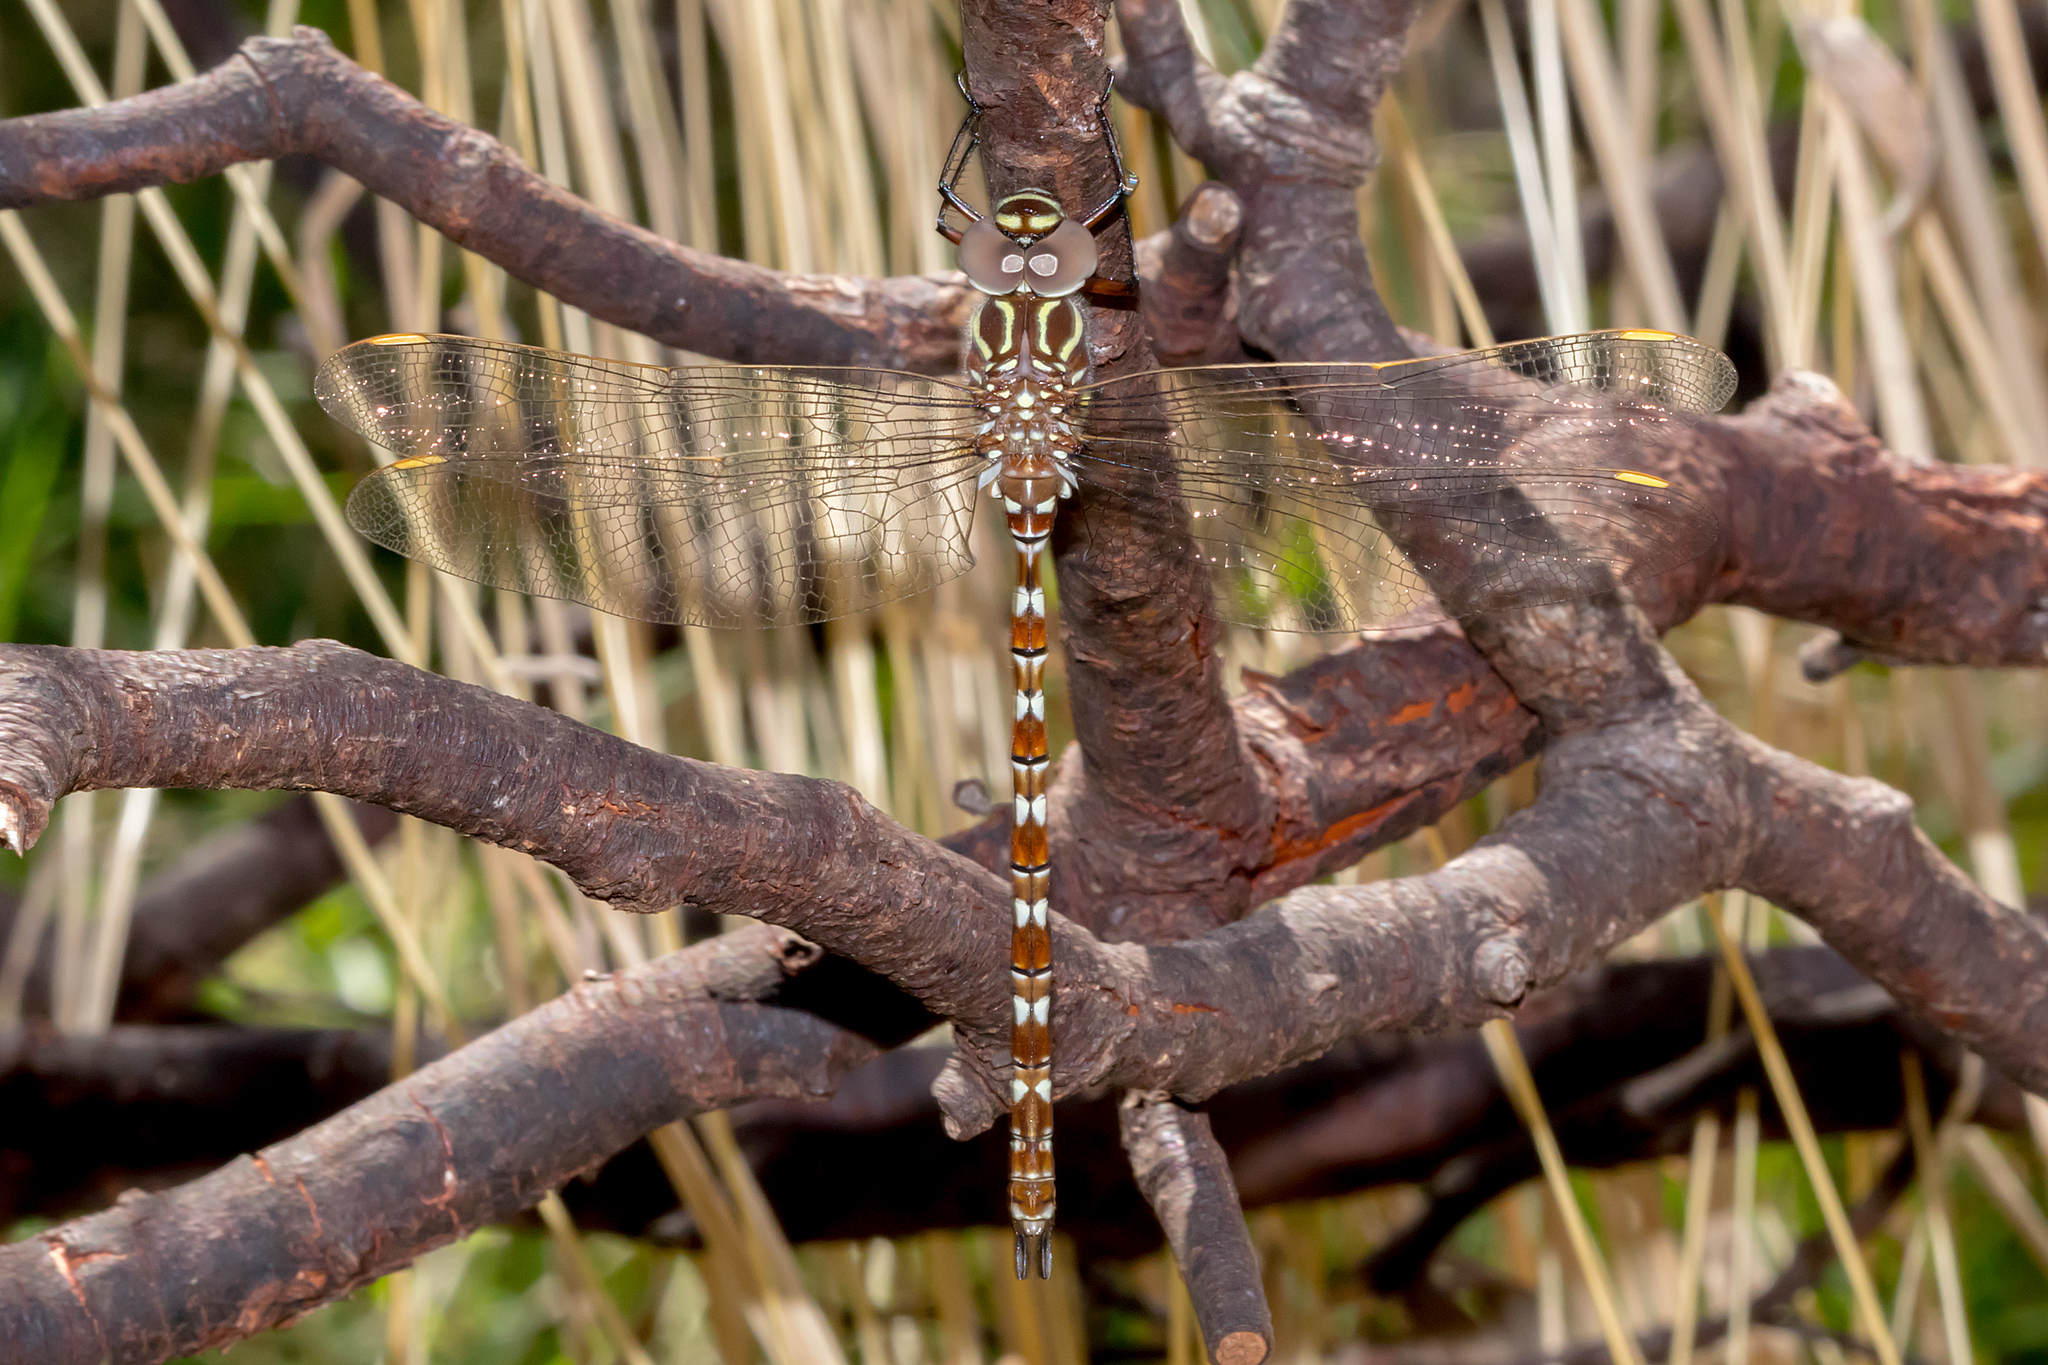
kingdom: Animalia
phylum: Arthropoda
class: Insecta
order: Odonata
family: Aeshnidae
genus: Austroaeschna
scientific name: Austroaeschna unicornis
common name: Unicorn darner
